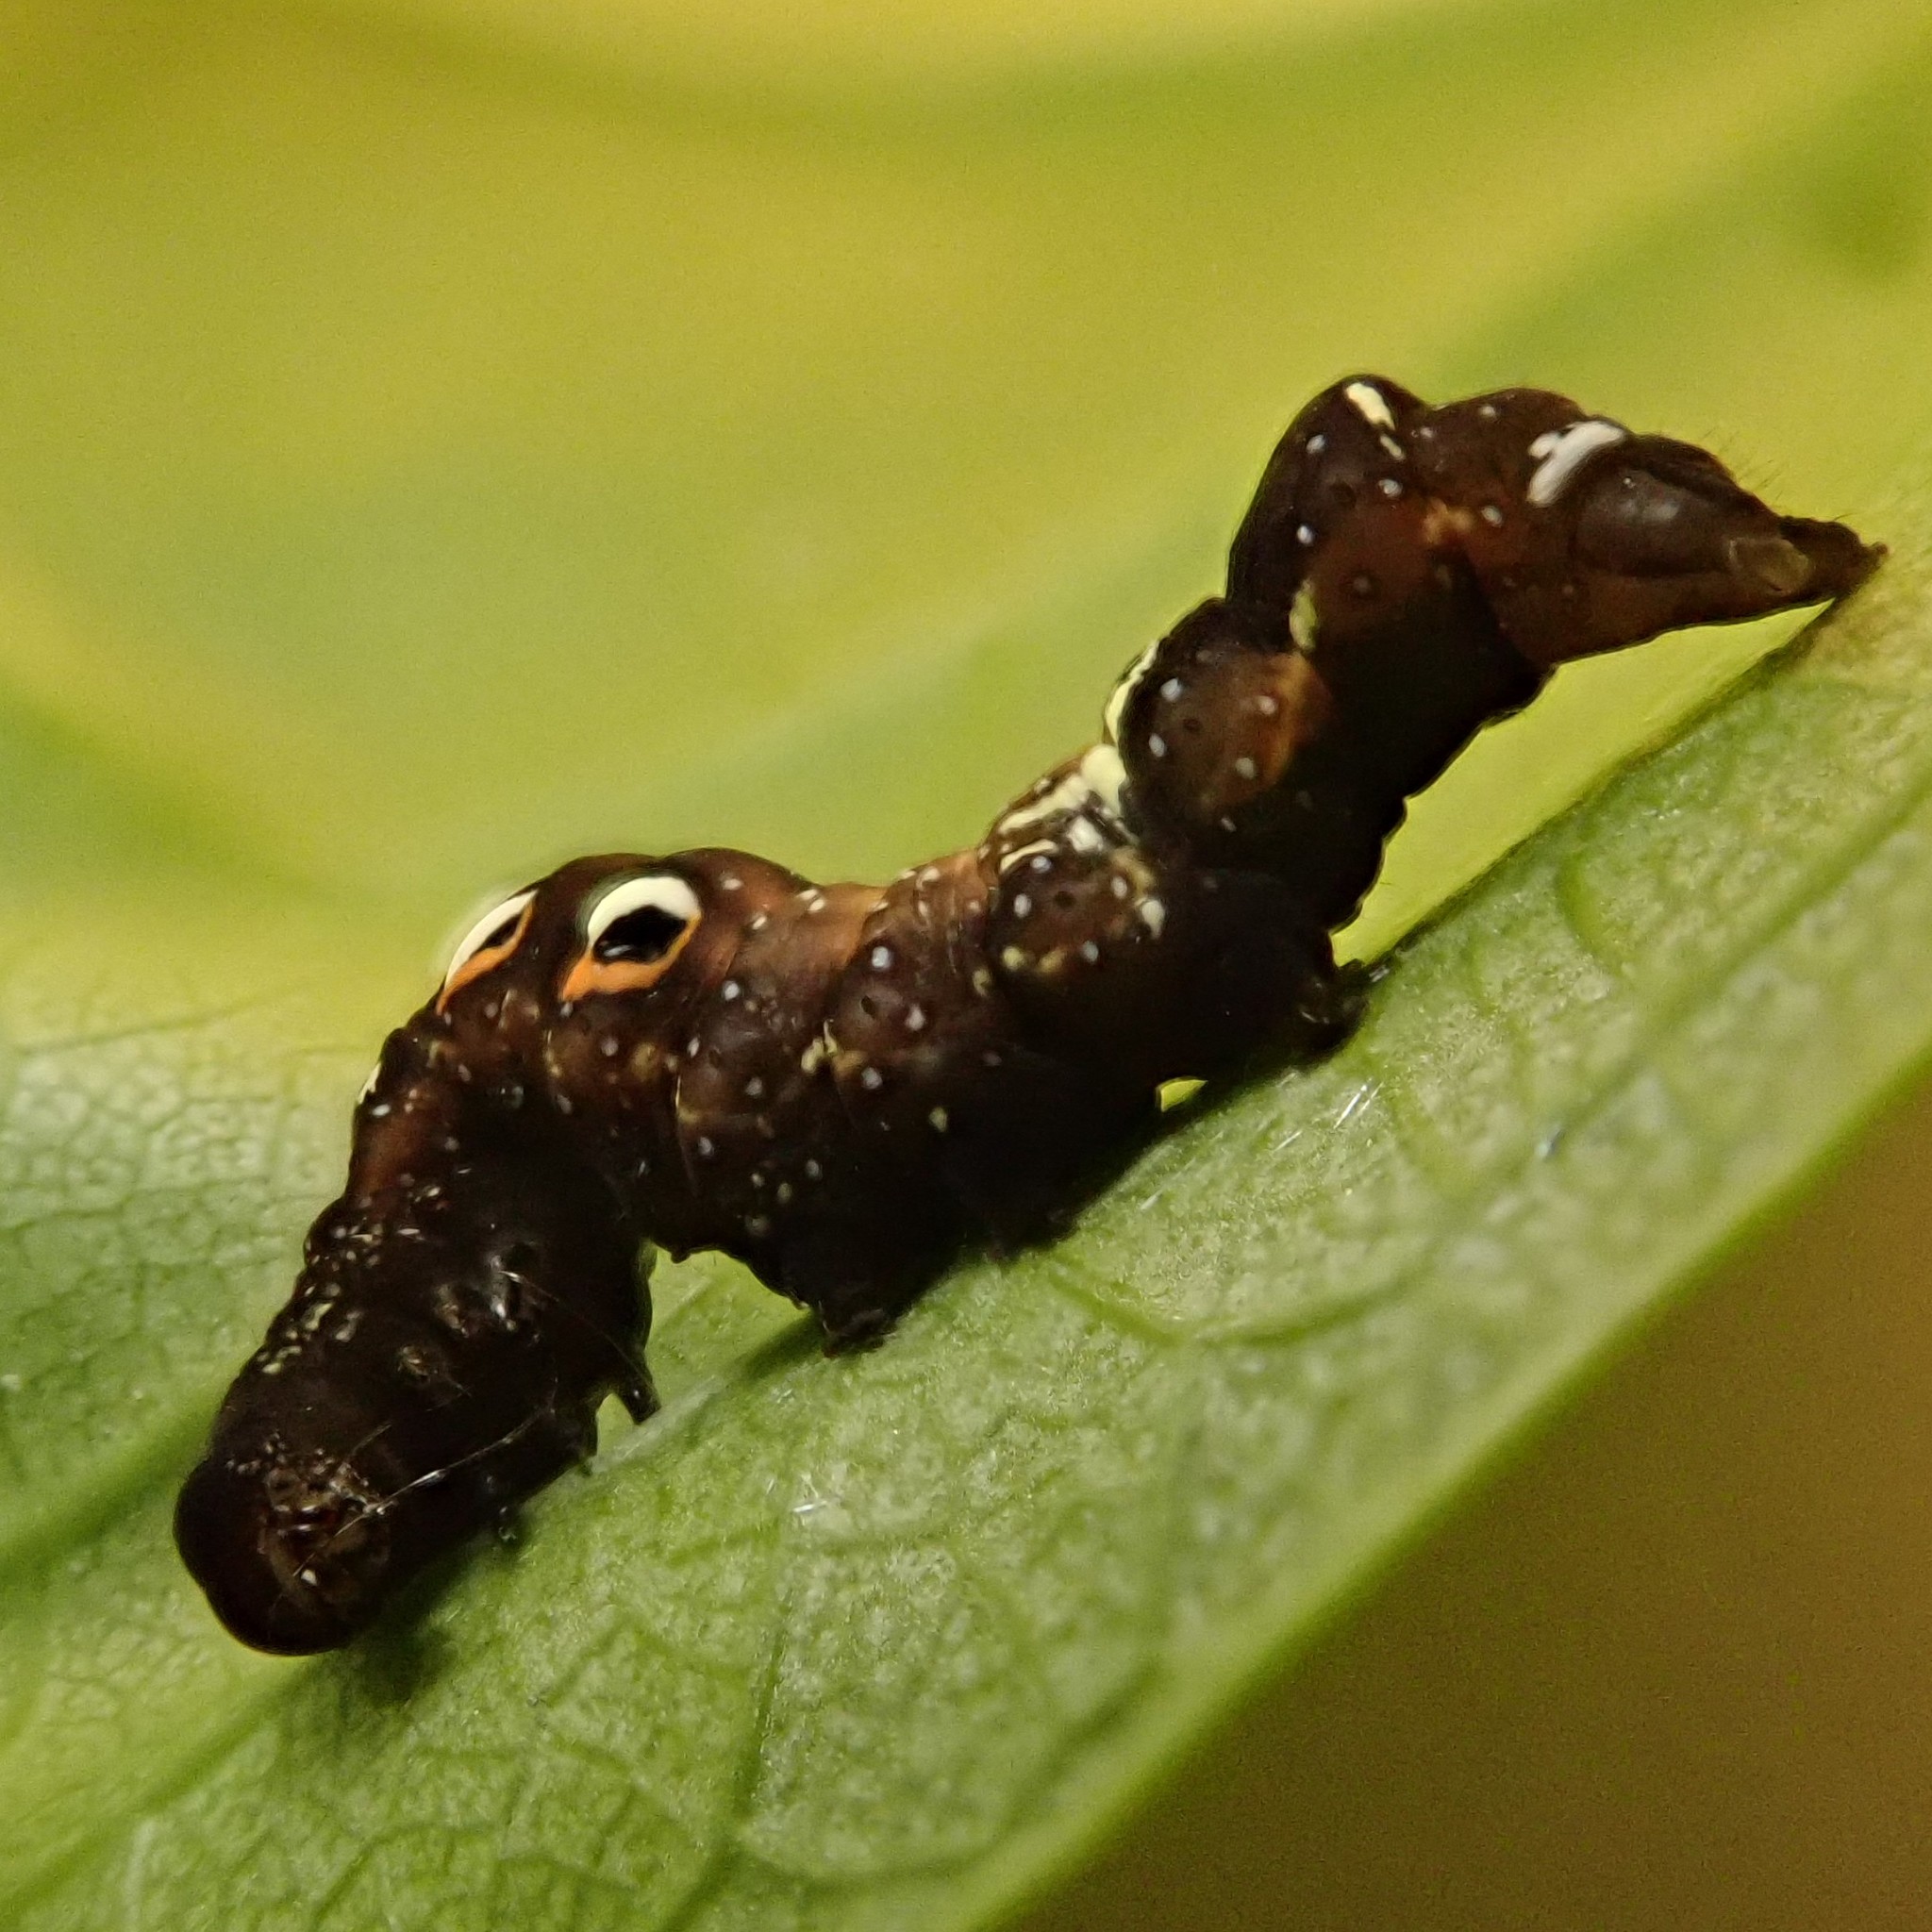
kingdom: Animalia
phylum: Arthropoda
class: Insecta
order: Lepidoptera
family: Erebidae
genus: Eudocima
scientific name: Eudocima phalonia
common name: Wasp
